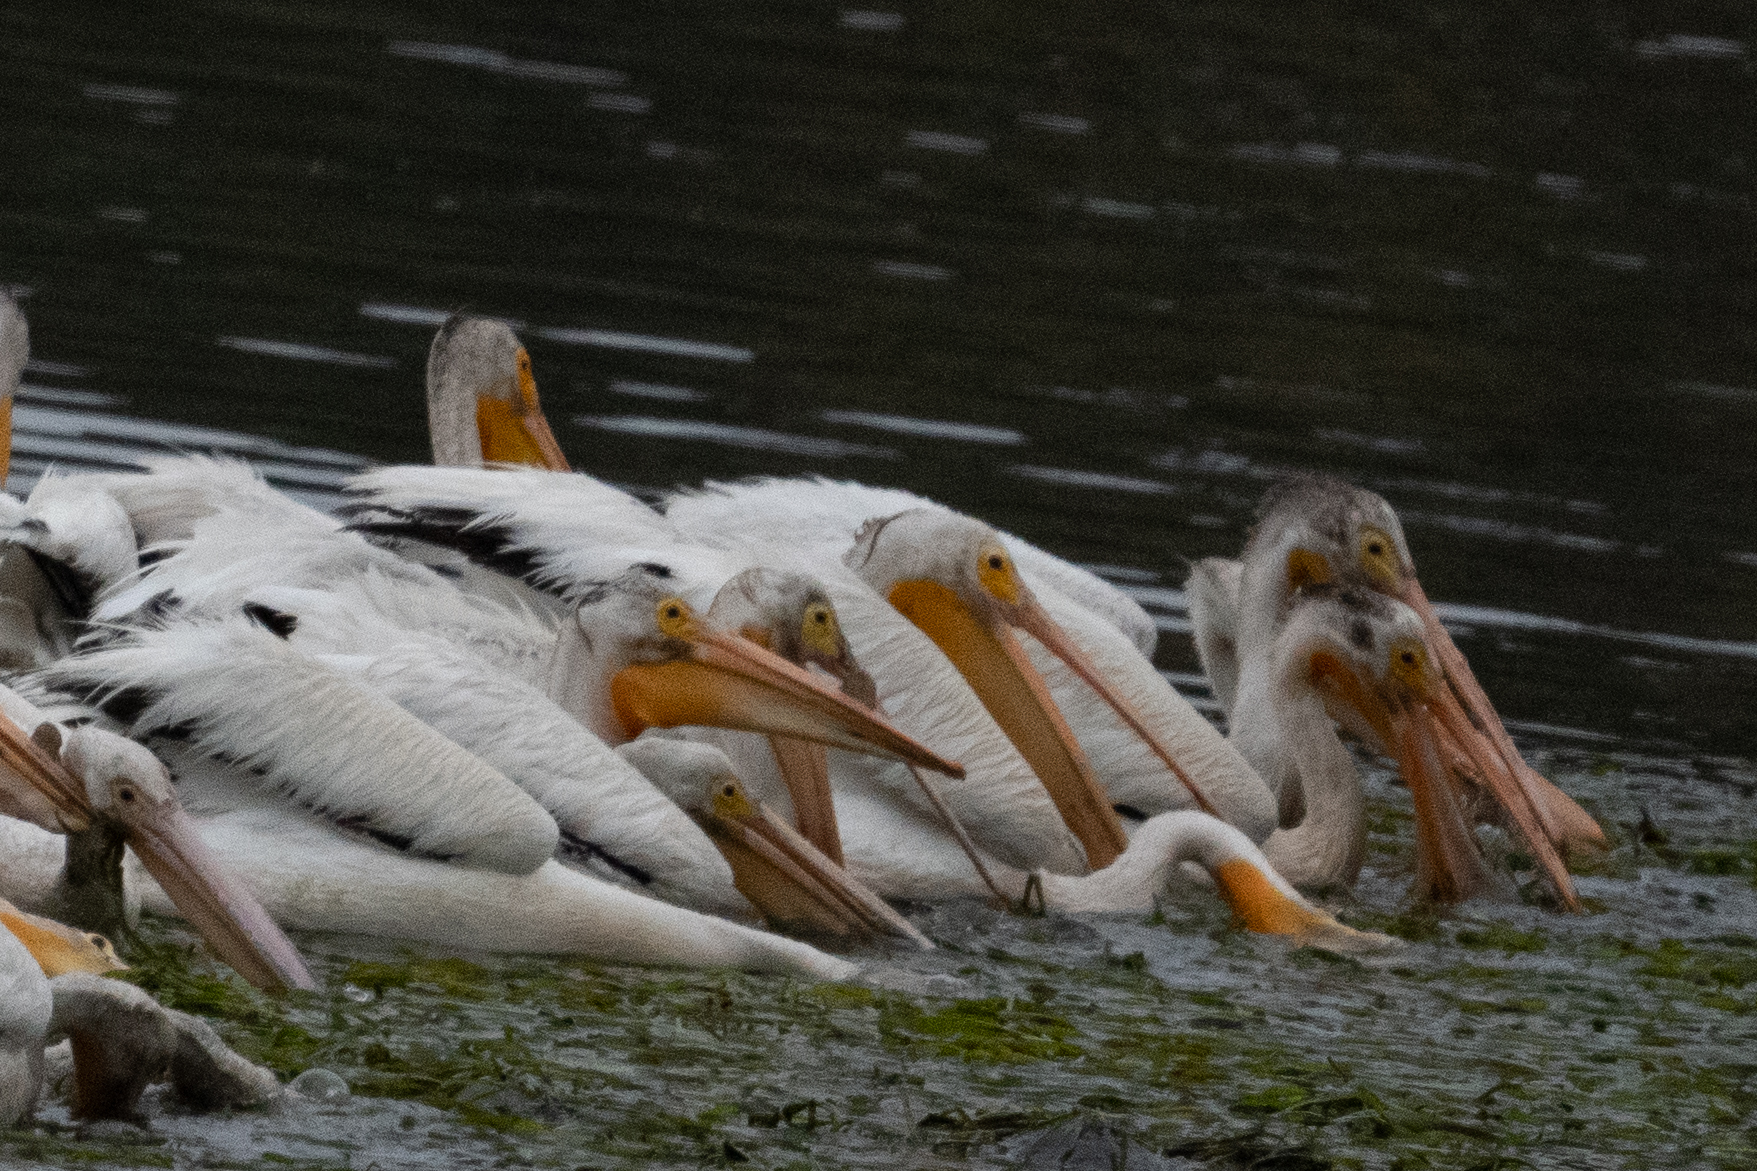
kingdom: Animalia
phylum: Chordata
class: Aves
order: Pelecaniformes
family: Pelecanidae
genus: Pelecanus
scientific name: Pelecanus erythrorhynchos
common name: American white pelican
